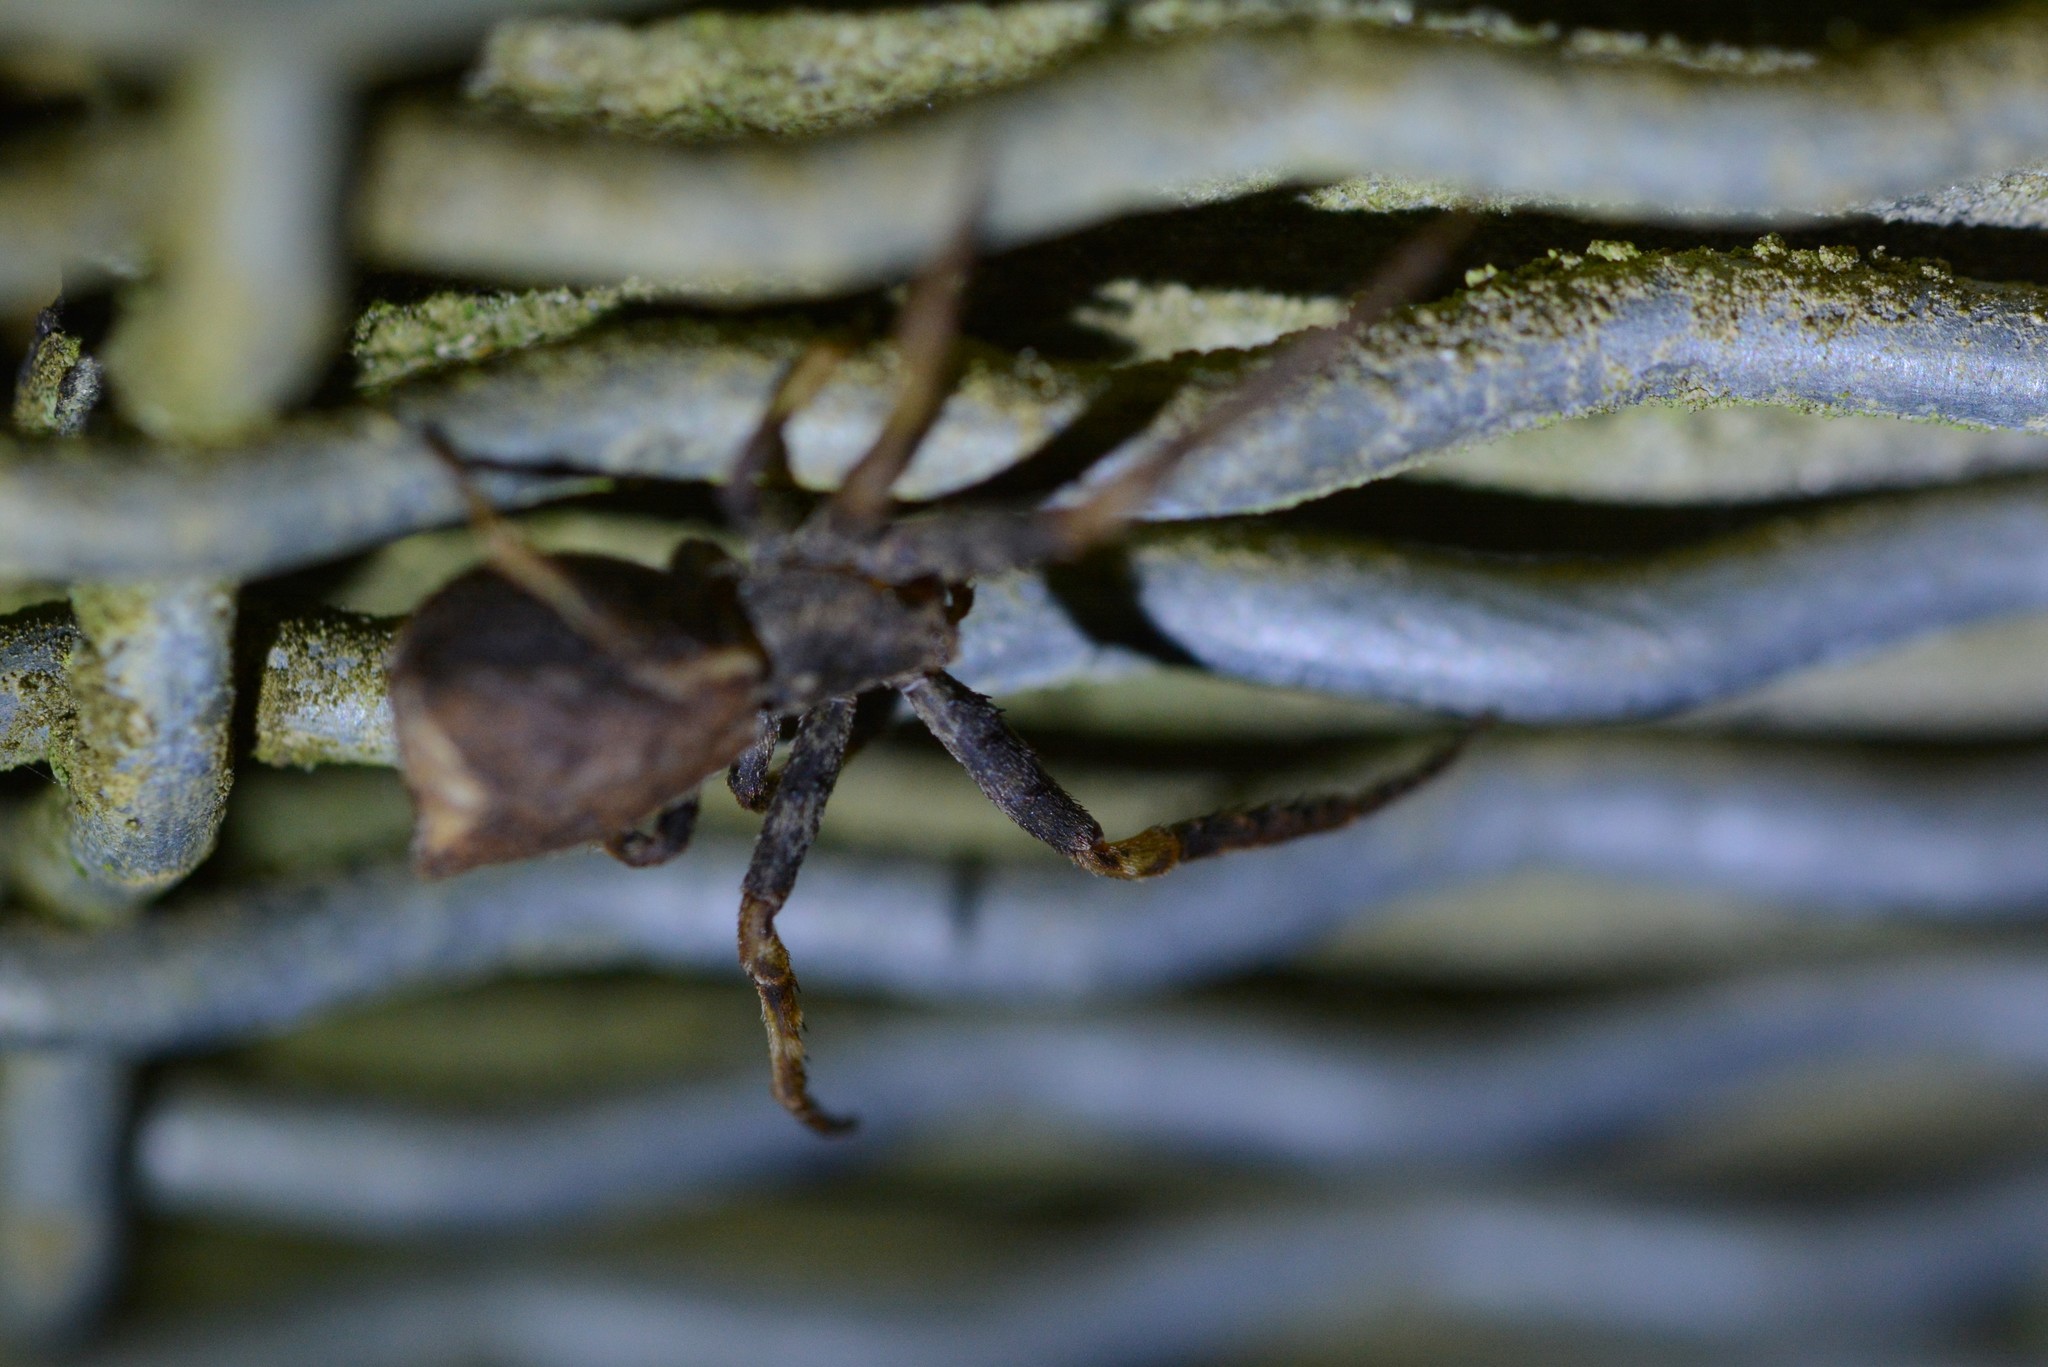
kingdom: Animalia
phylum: Arthropoda
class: Arachnida
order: Araneae
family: Thomisidae
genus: Sidymella
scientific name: Sidymella angulata
